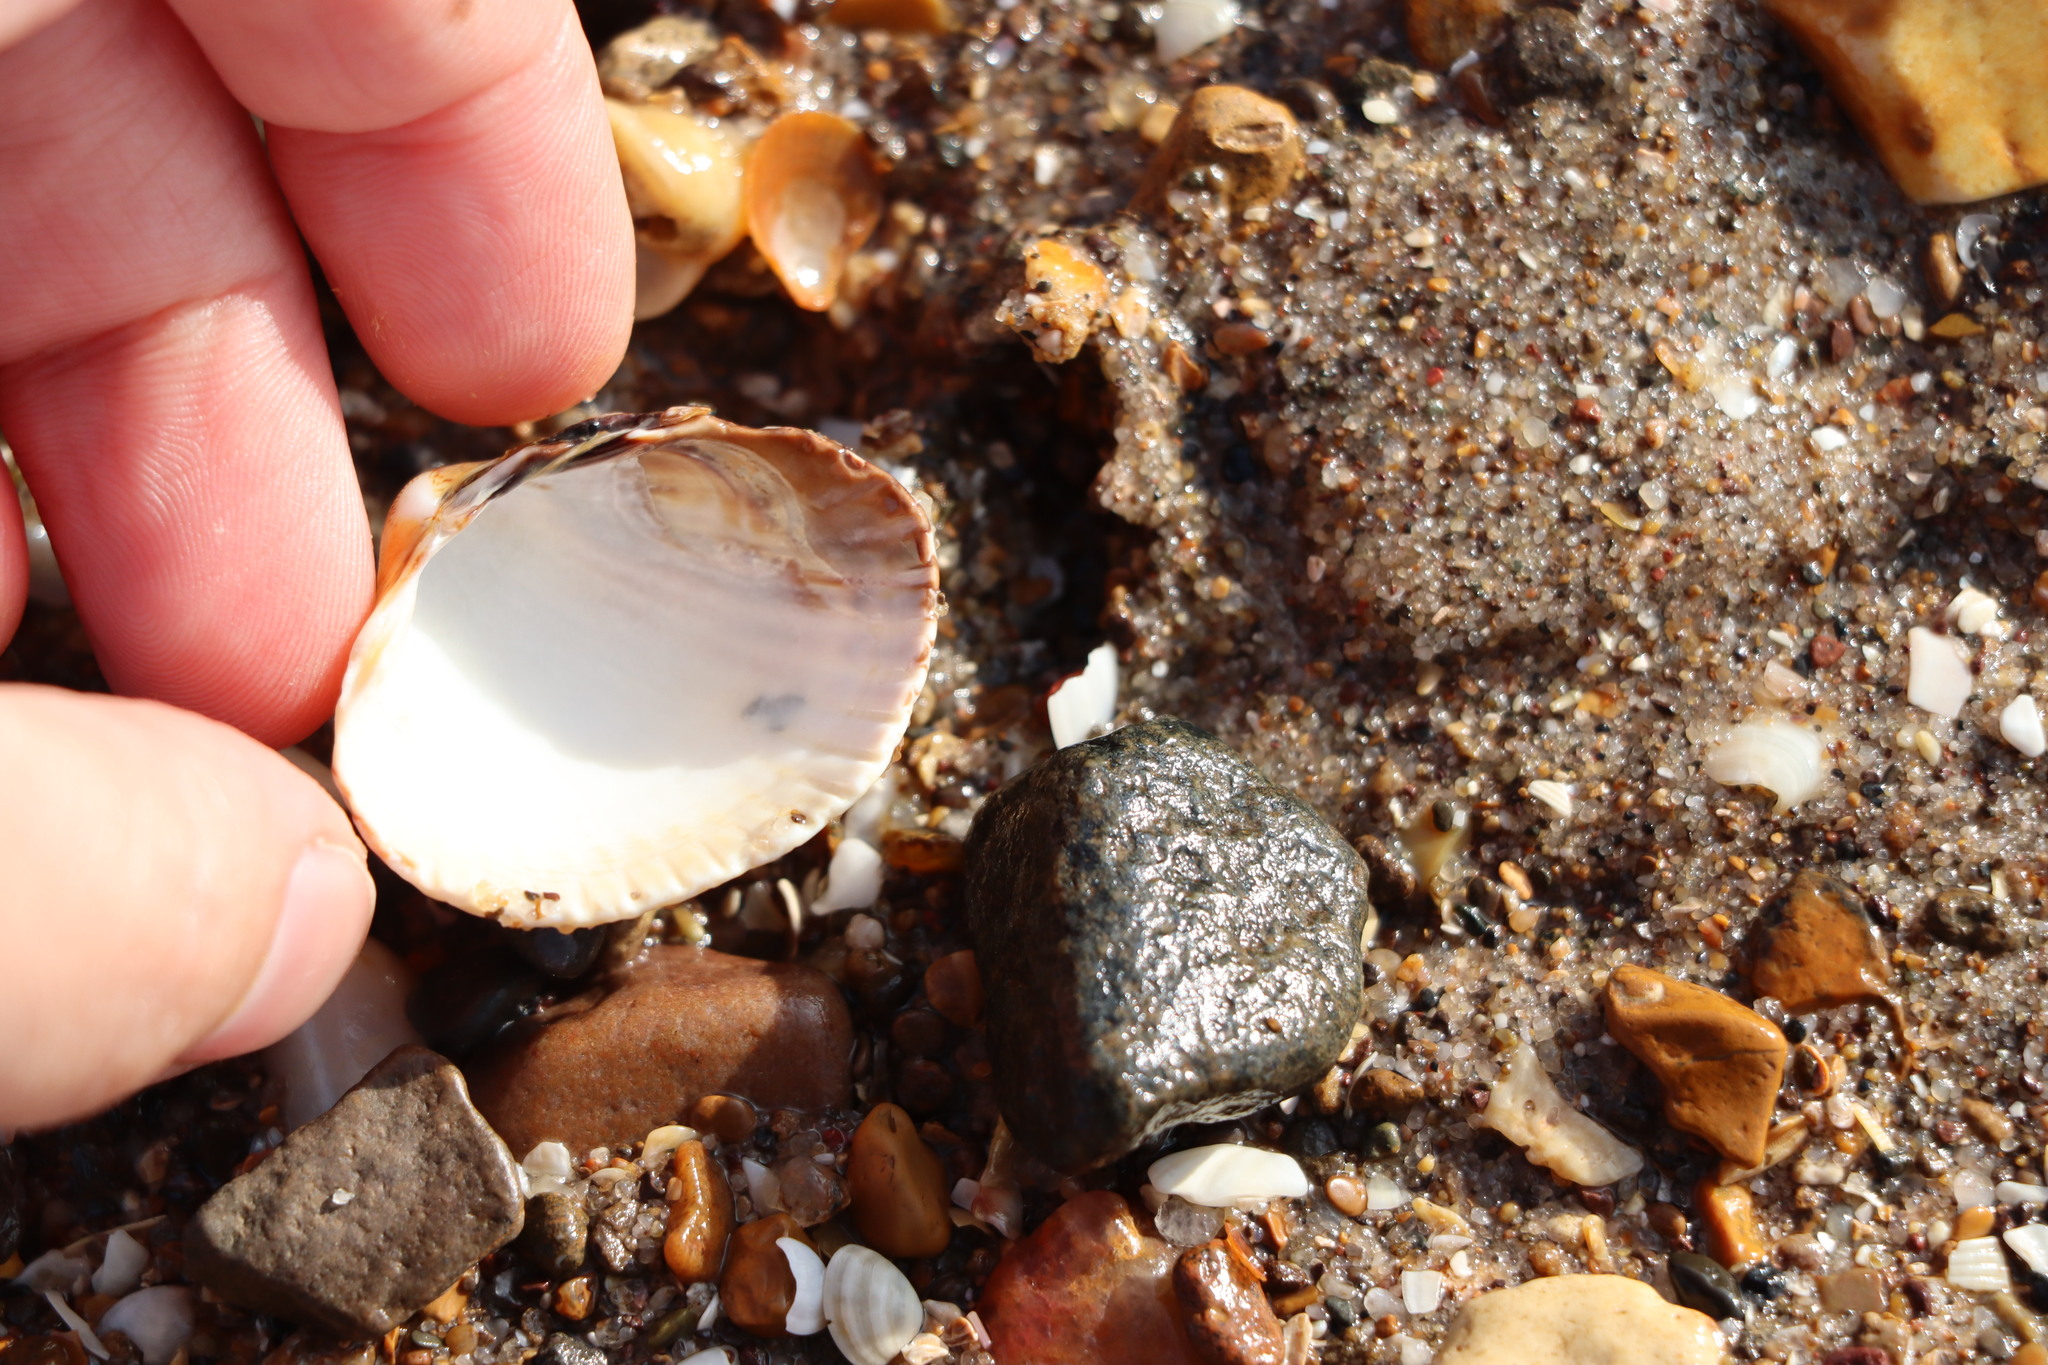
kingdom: Animalia
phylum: Mollusca
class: Bivalvia
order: Cardiida
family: Cardiidae
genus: Cerastoderma
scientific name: Cerastoderma edule
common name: Common cockle
